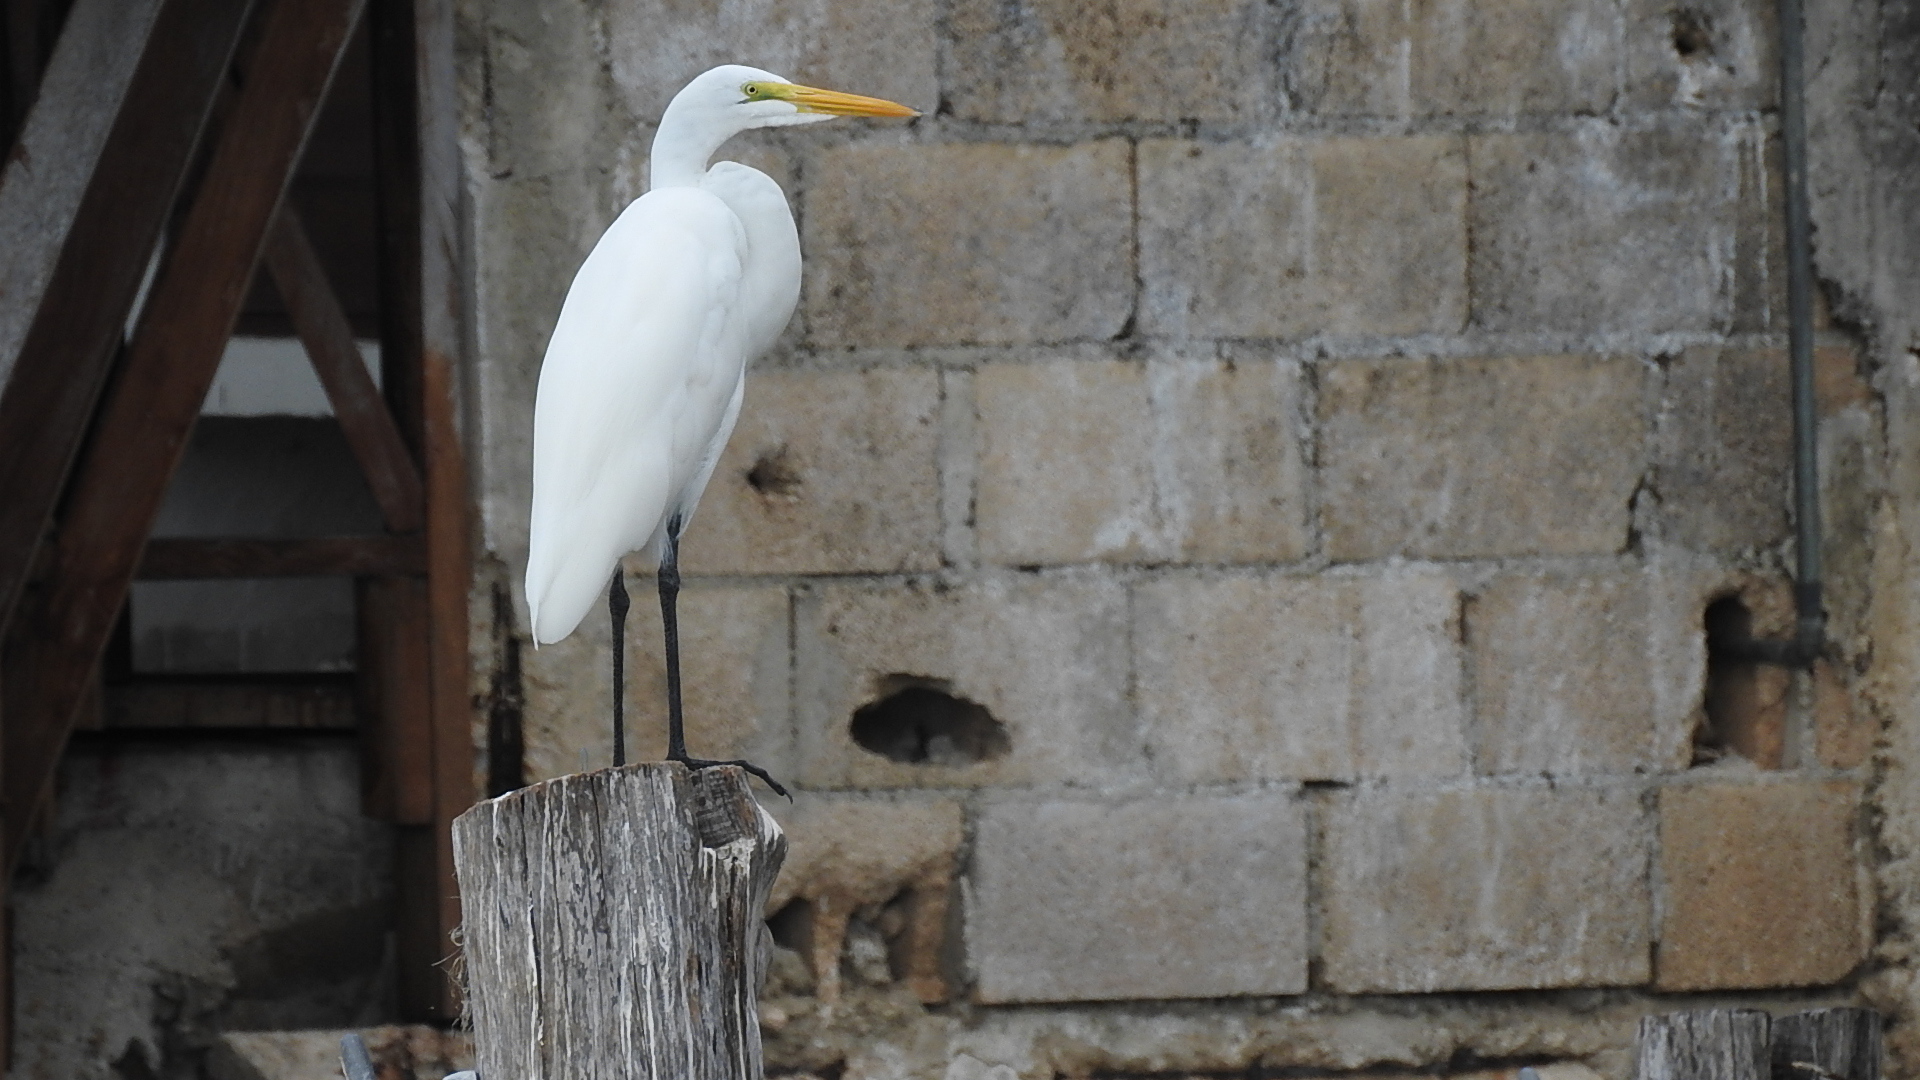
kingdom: Animalia
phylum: Chordata
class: Aves
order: Pelecaniformes
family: Ardeidae
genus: Ardea
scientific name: Ardea alba
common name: Great egret
